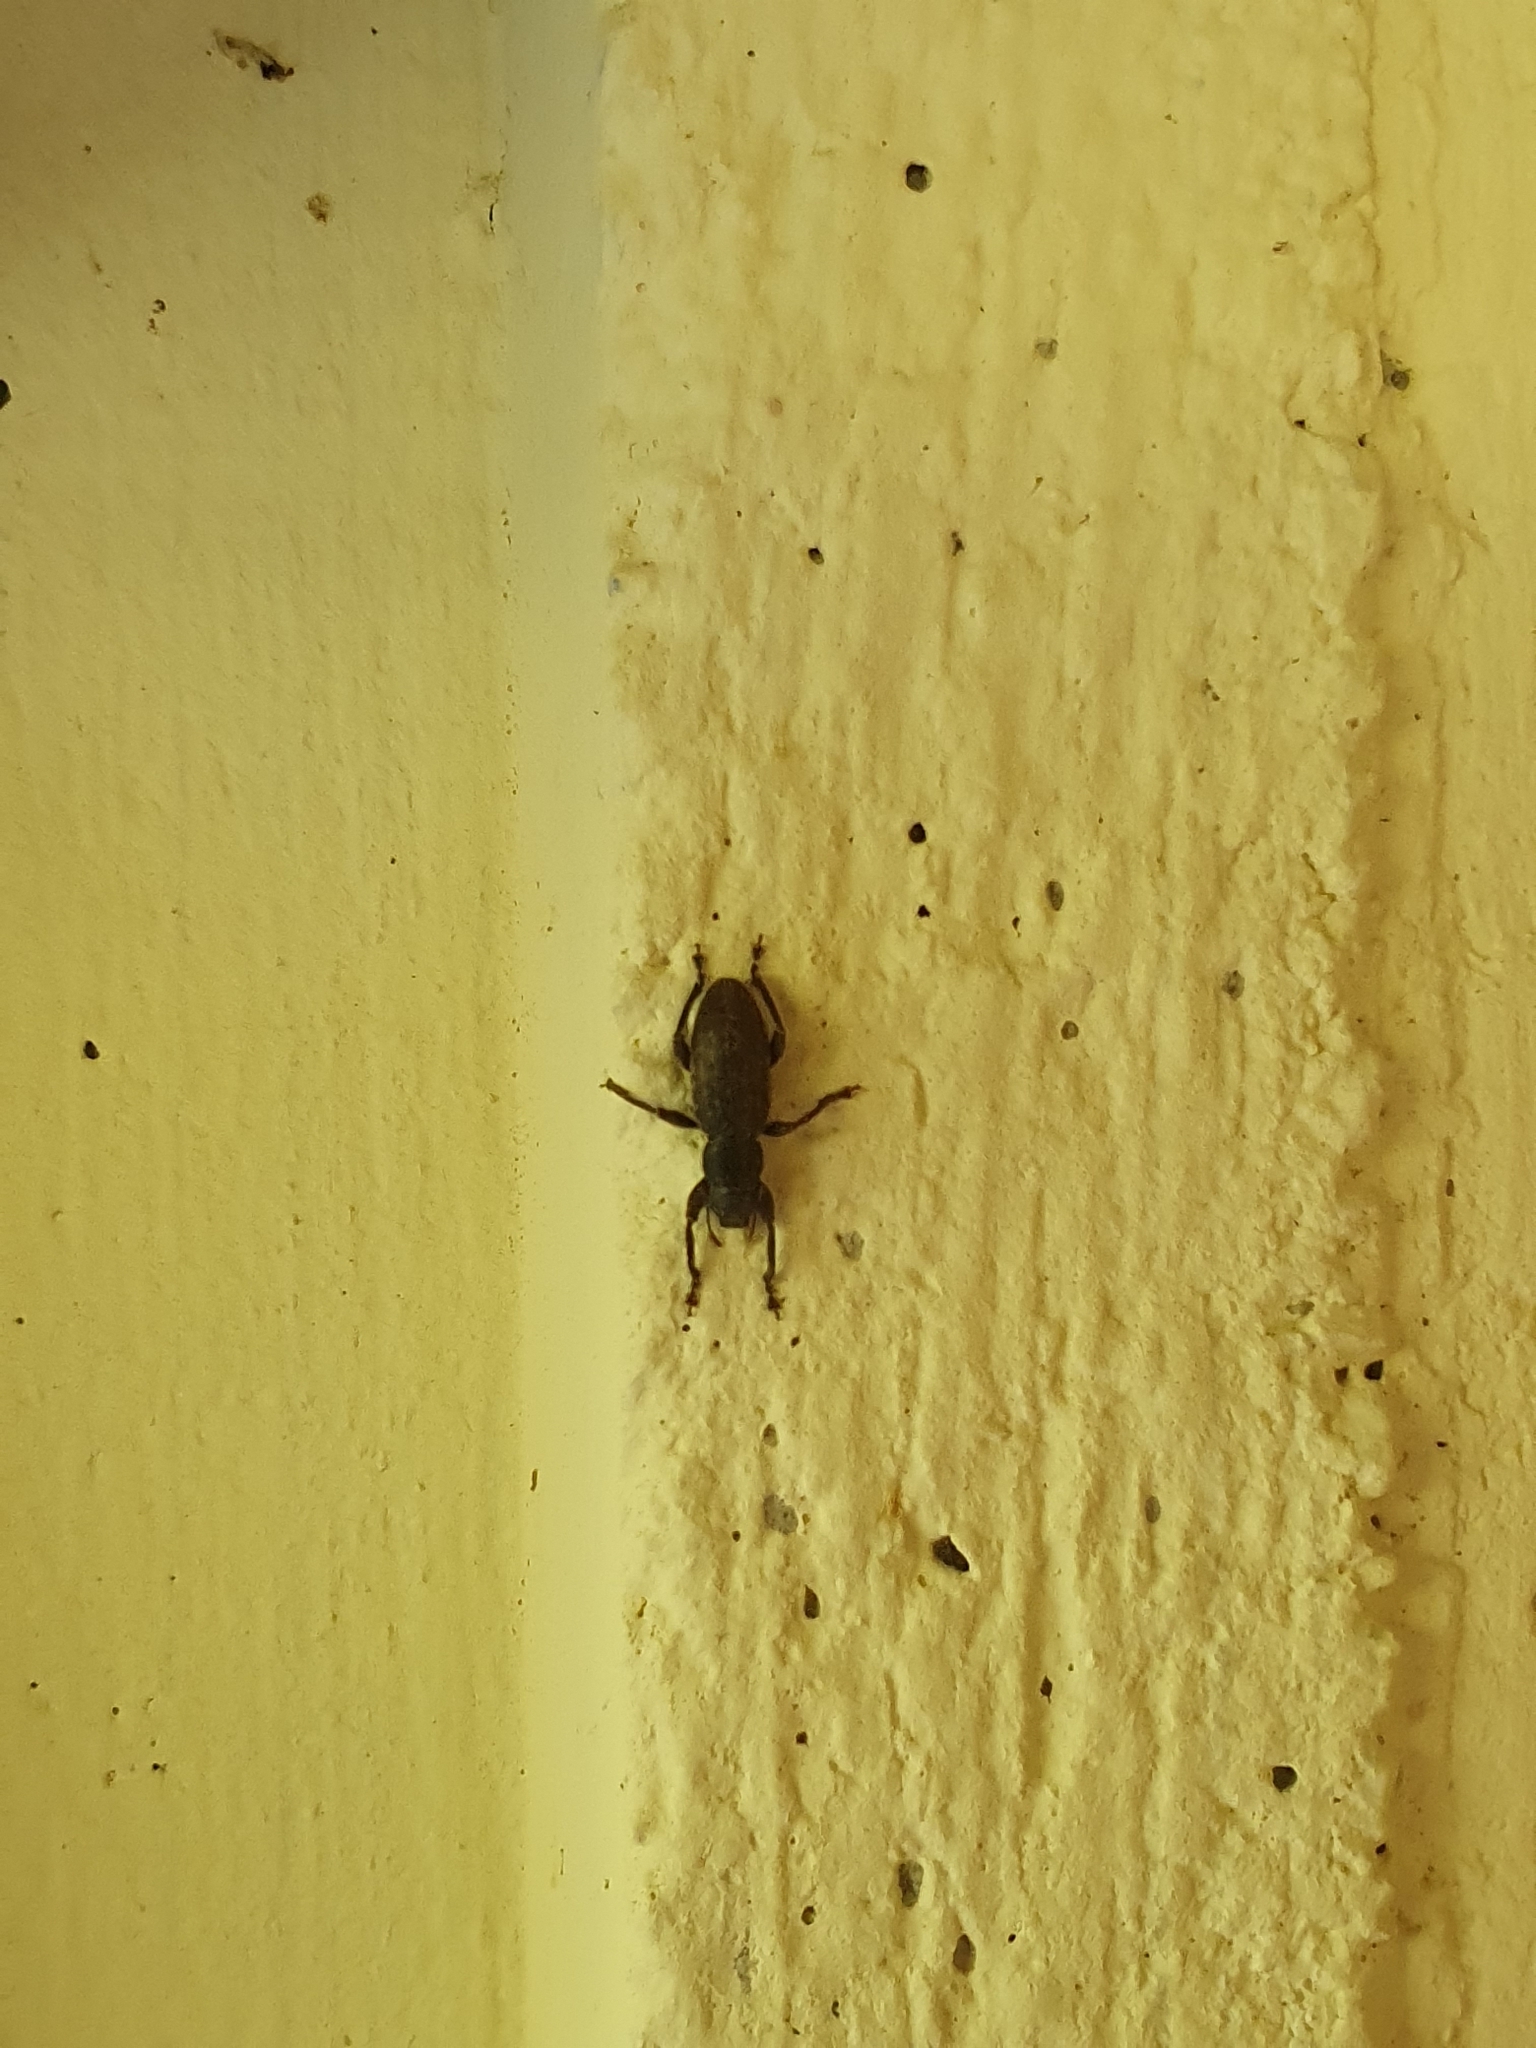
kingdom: Animalia
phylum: Arthropoda
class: Insecta
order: Coleoptera
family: Curculionidae
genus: Brachyderes
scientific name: Brachyderes incanus
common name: Weevil
